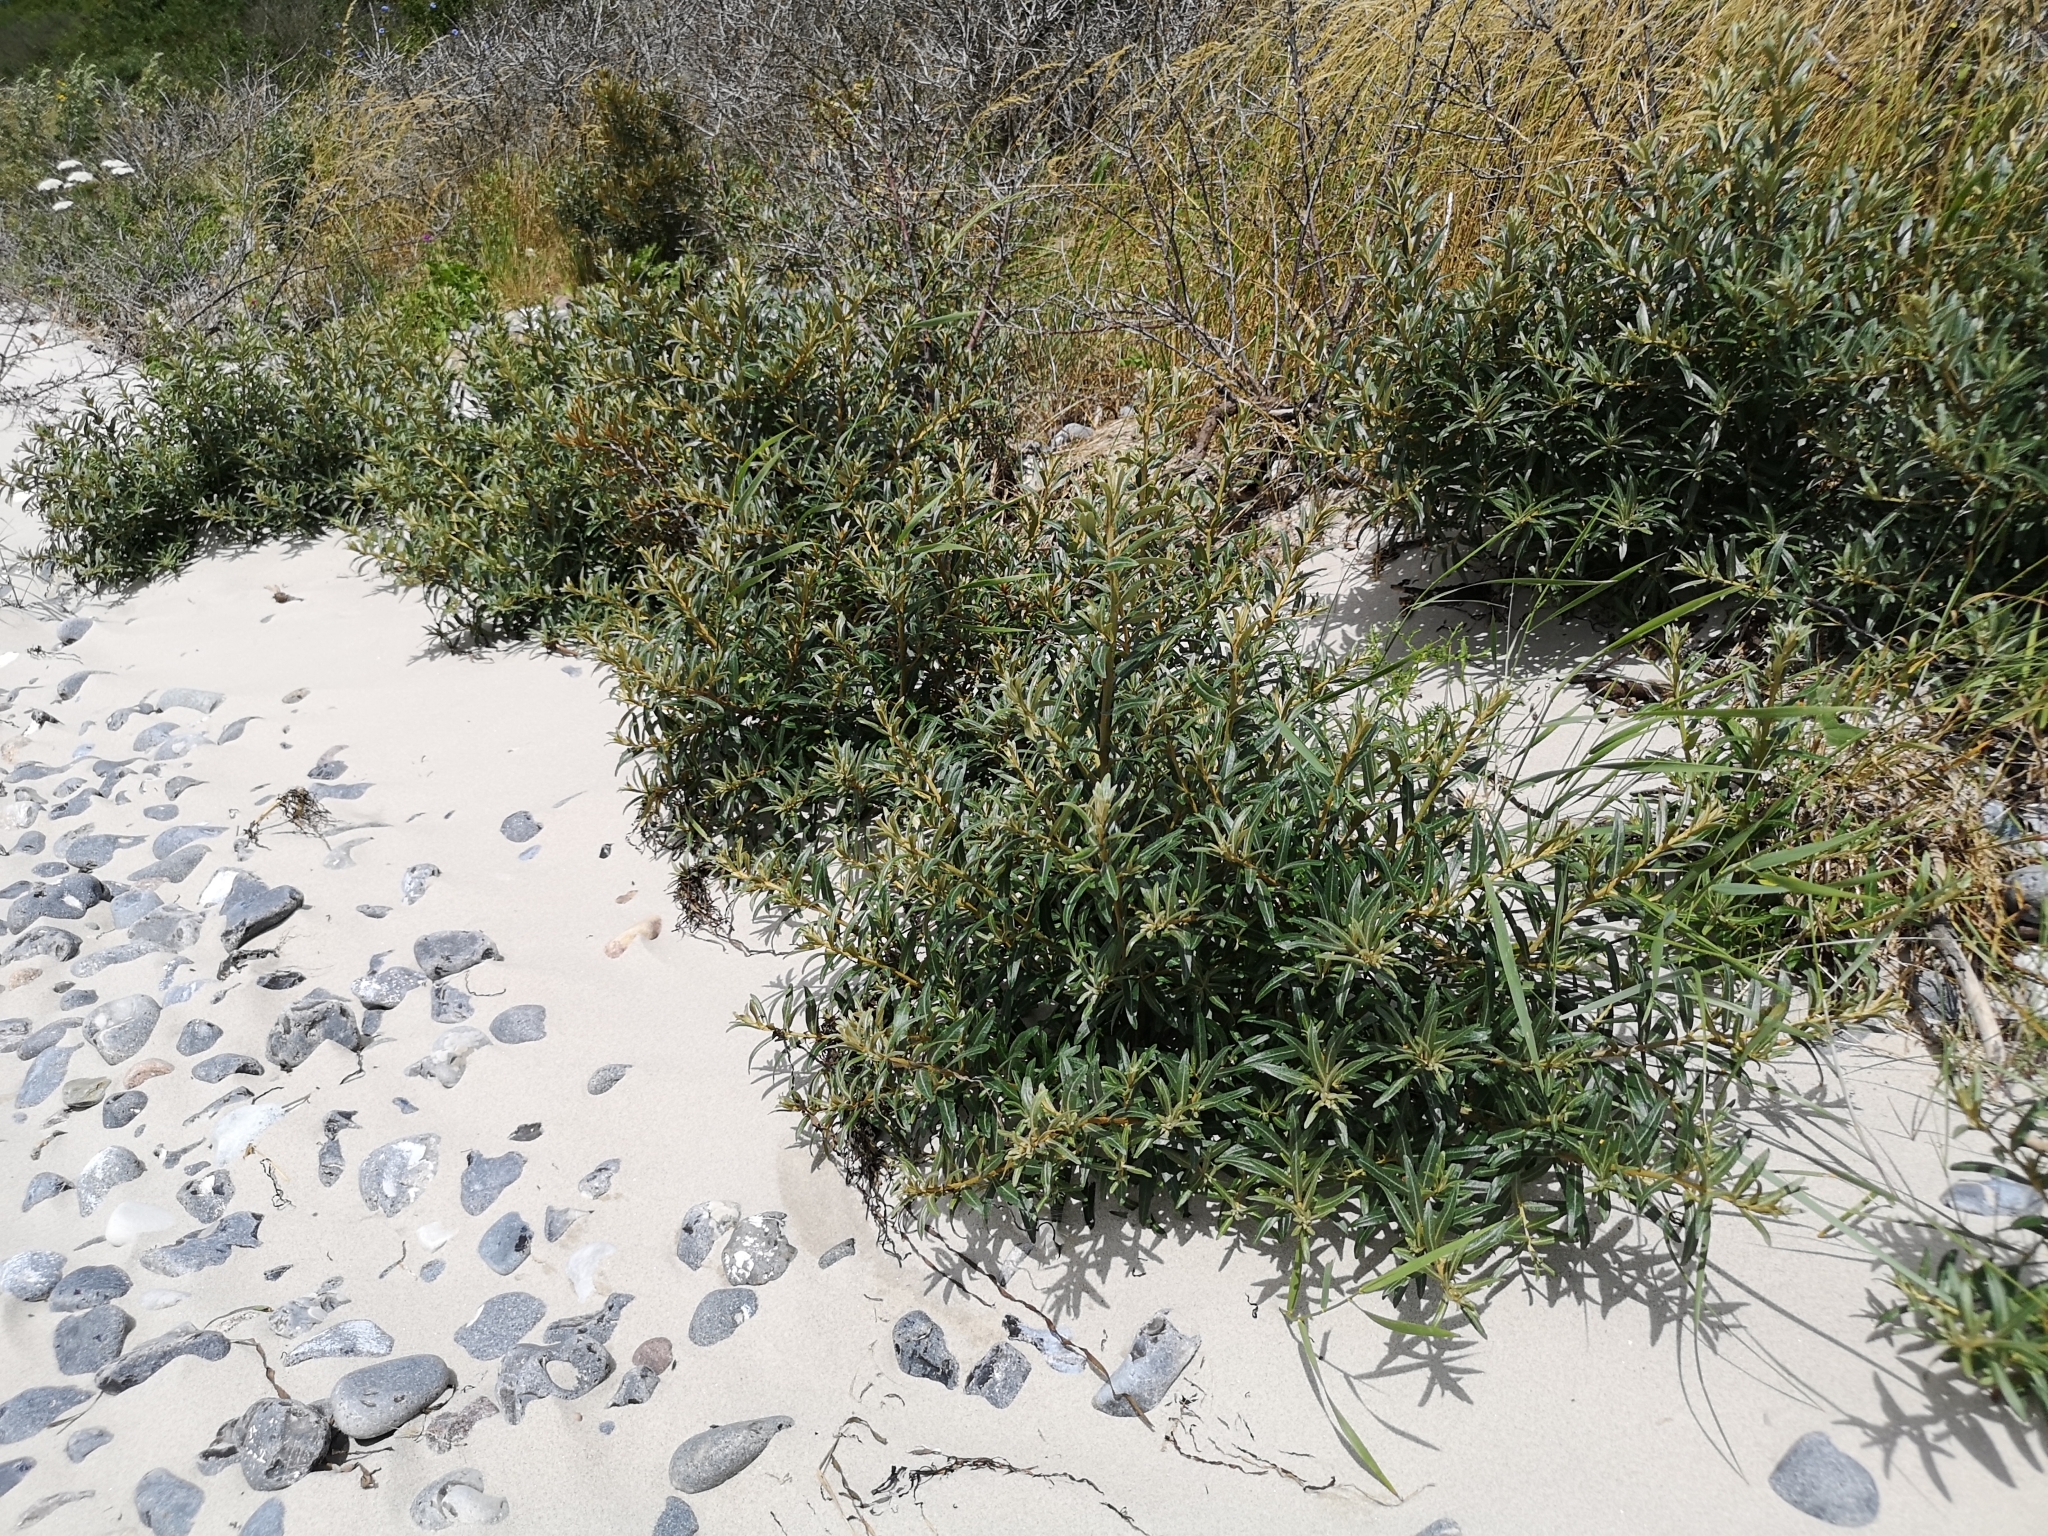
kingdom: Plantae
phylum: Tracheophyta
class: Magnoliopsida
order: Rosales
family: Elaeagnaceae
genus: Hippophae
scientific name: Hippophae rhamnoides
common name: Sea-buckthorn
